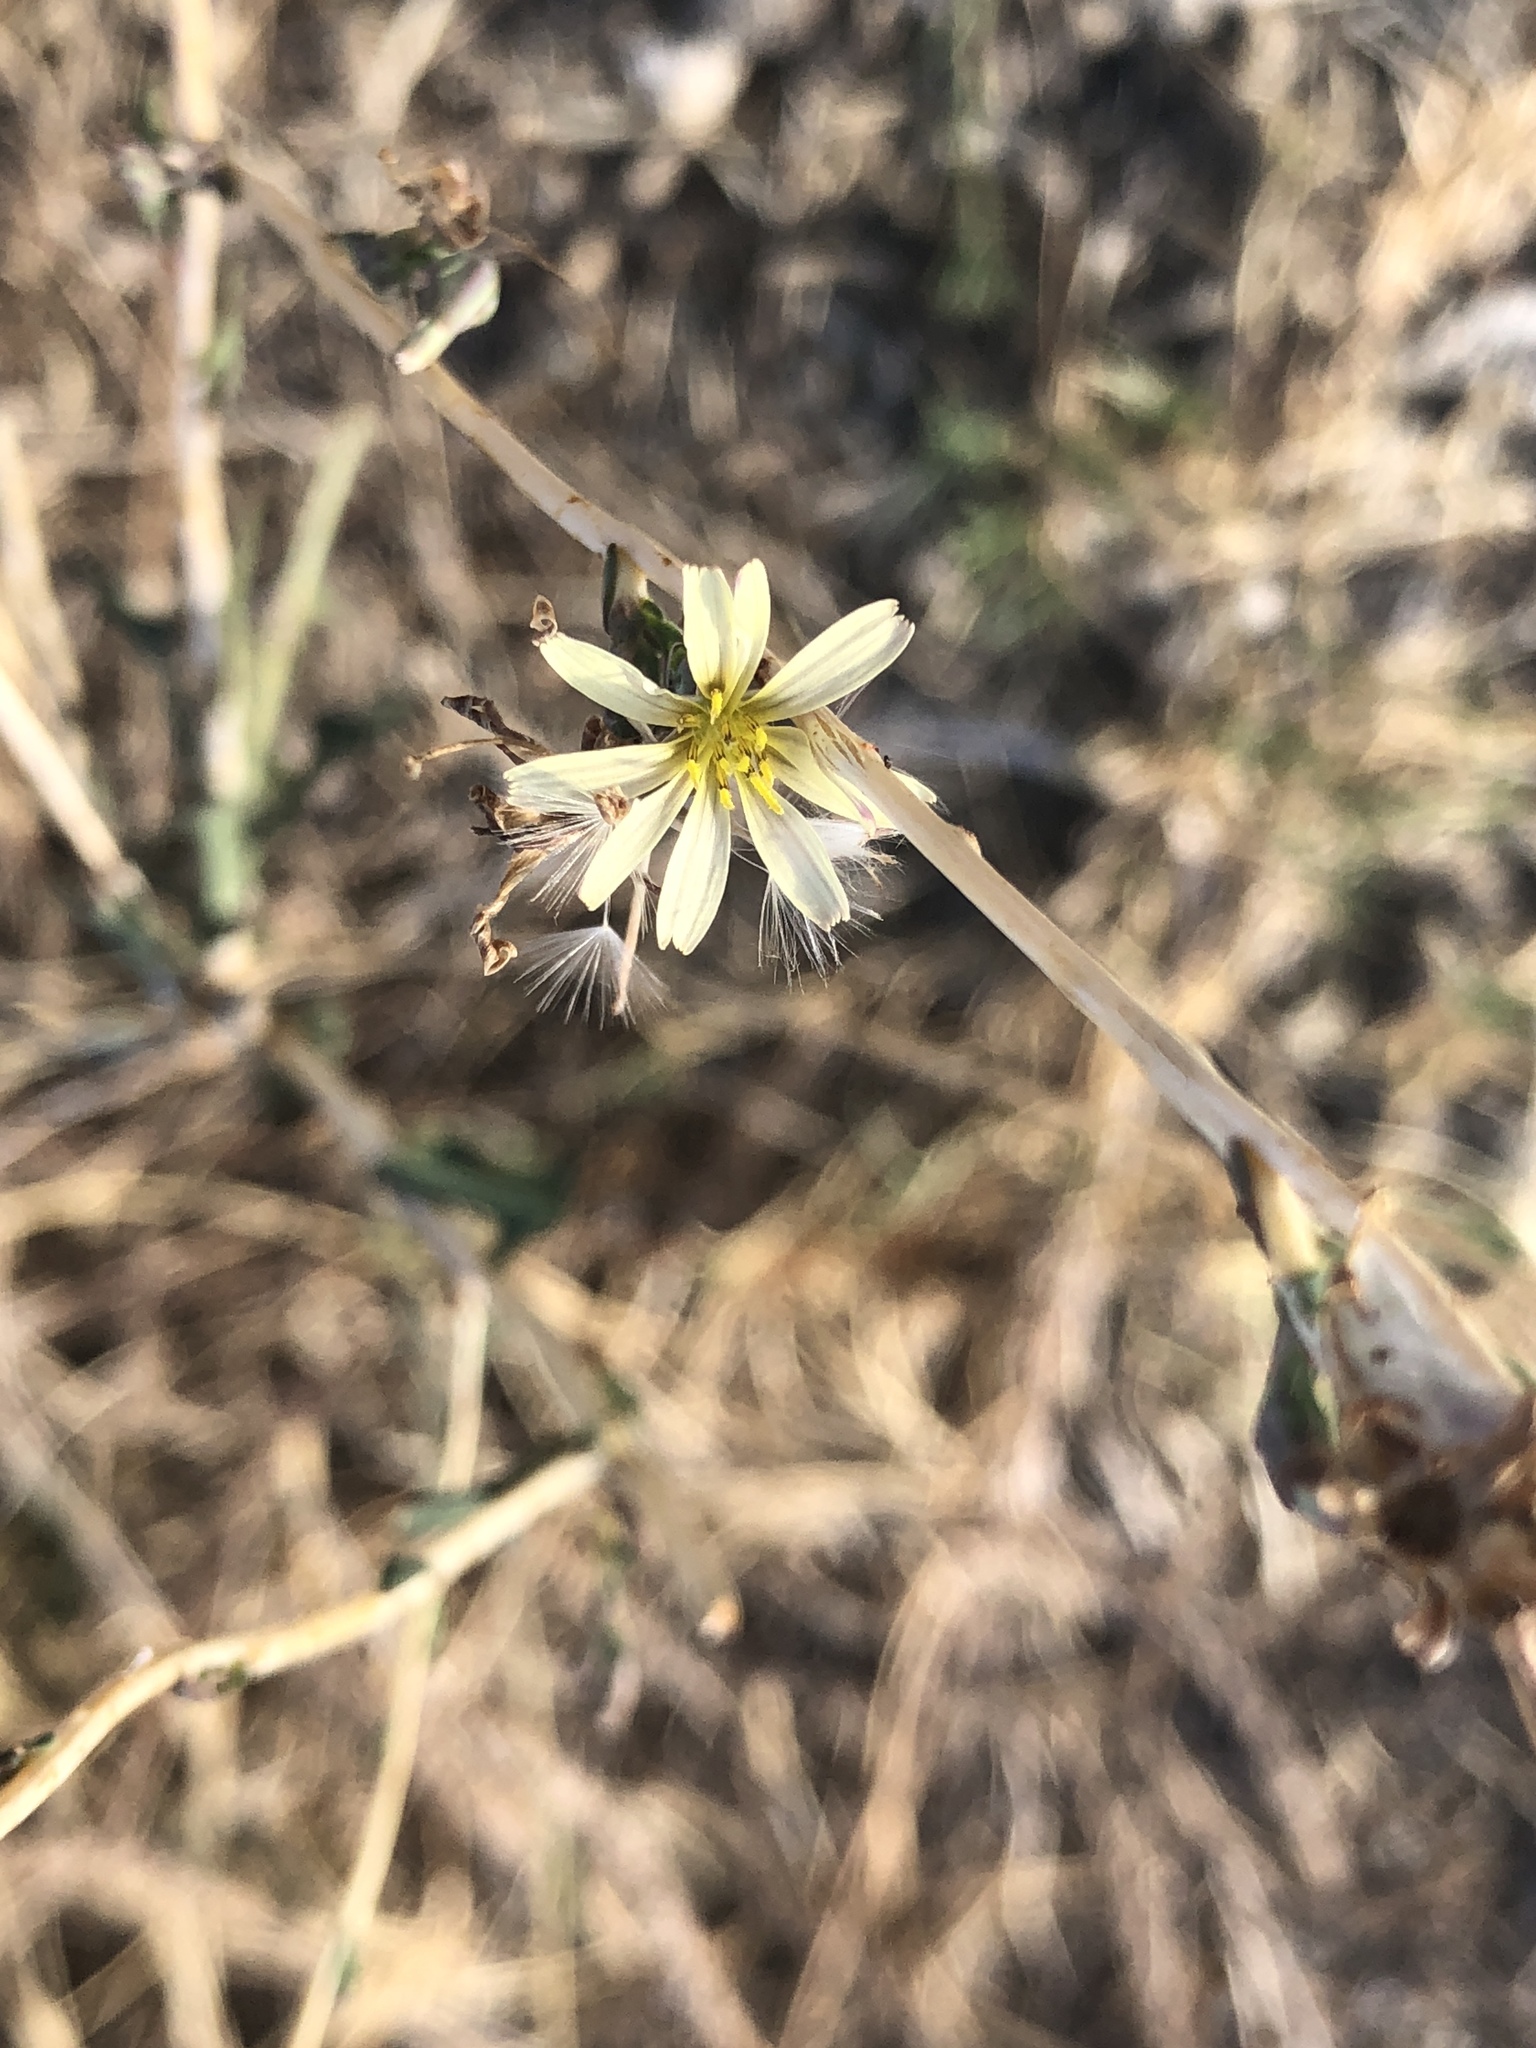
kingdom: Plantae
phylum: Tracheophyta
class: Magnoliopsida
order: Asterales
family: Asteraceae
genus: Lactuca
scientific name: Lactuca saligna
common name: Wild lettuce
